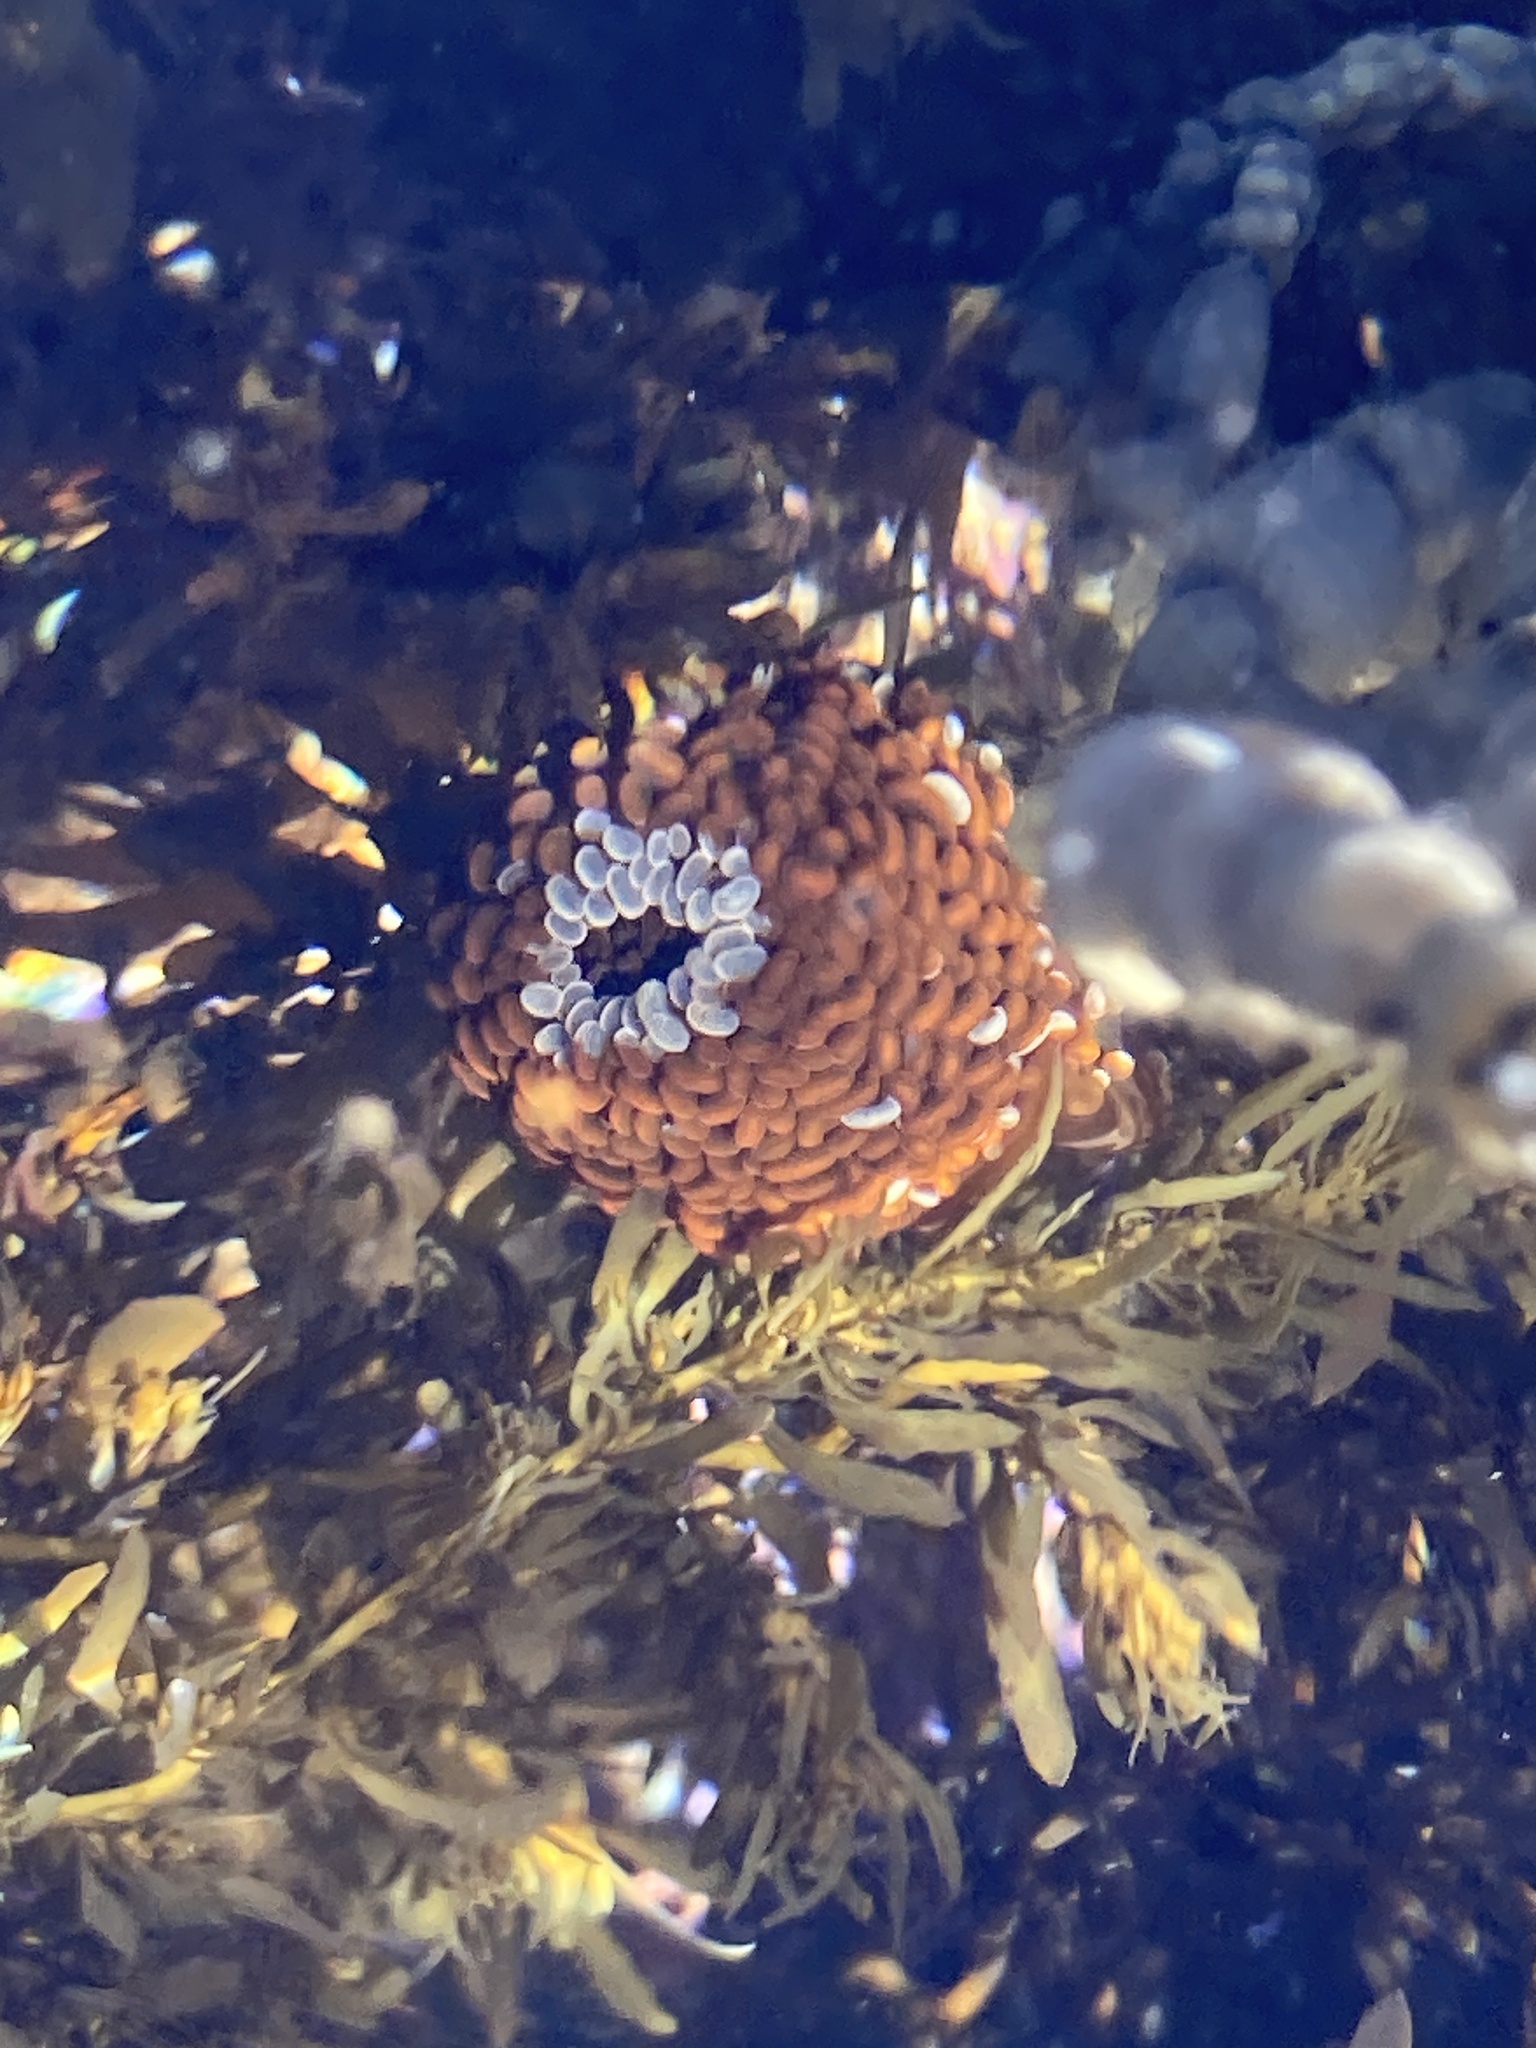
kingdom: Animalia
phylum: Cnidaria
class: Anthozoa
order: Actiniaria
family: Actiniidae
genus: Phlyctenactis
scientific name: Phlyctenactis tuberculosa
